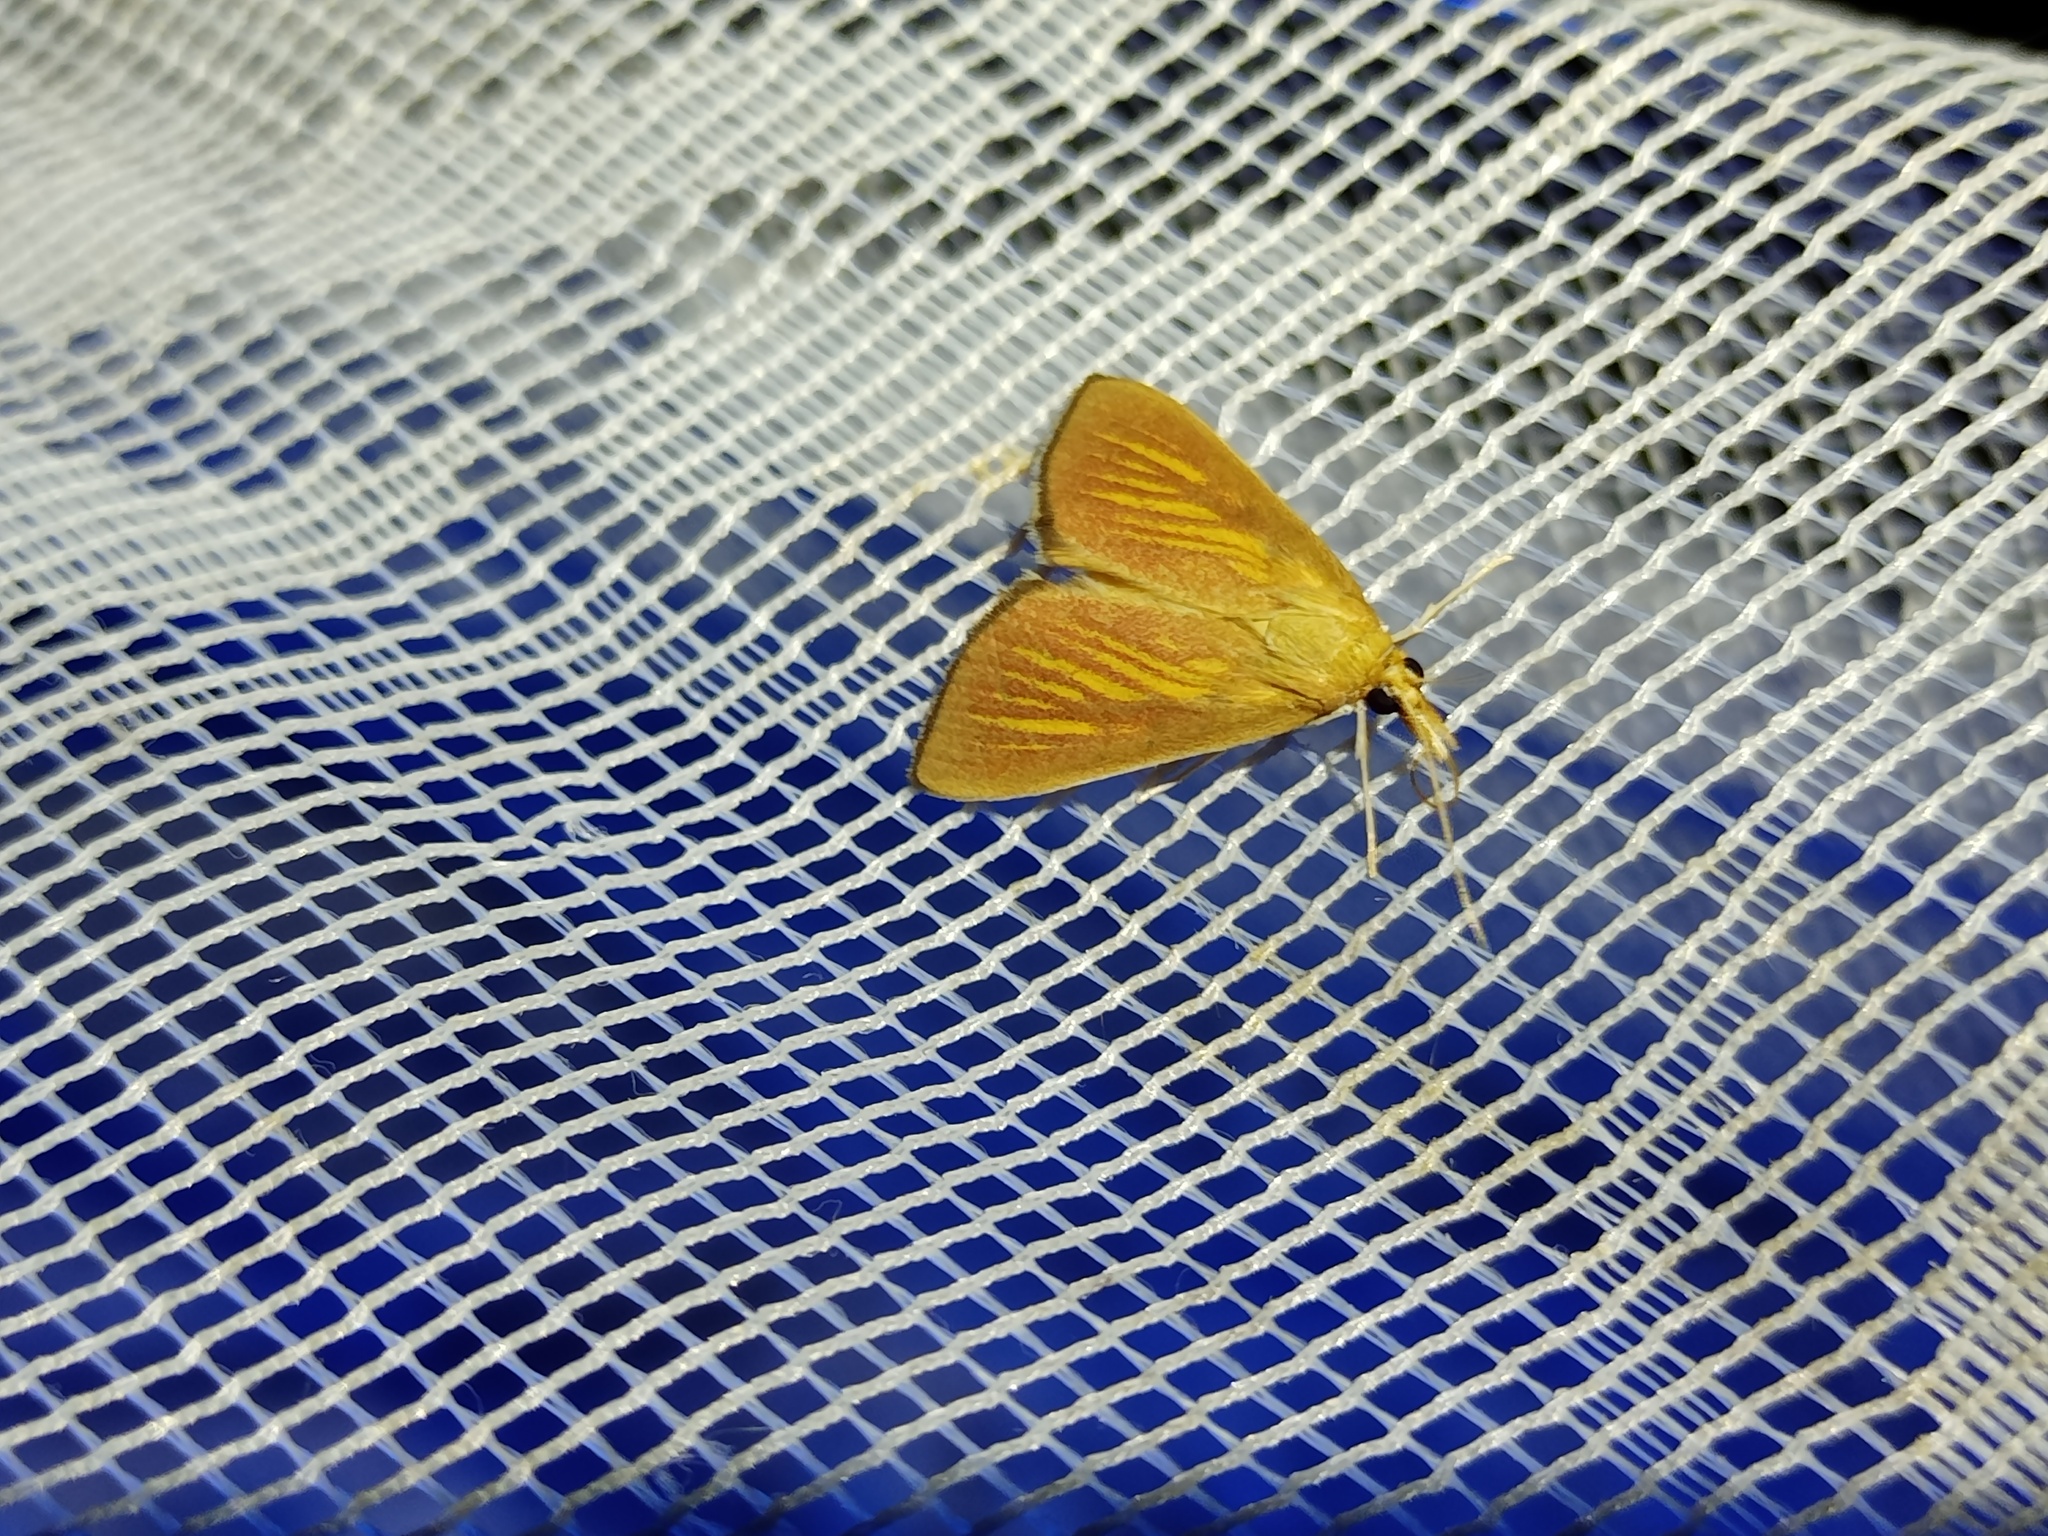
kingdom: Animalia
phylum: Arthropoda
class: Insecta
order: Lepidoptera
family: Crambidae
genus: Nascia
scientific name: Nascia cilialis
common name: Orange-rayed pearl
